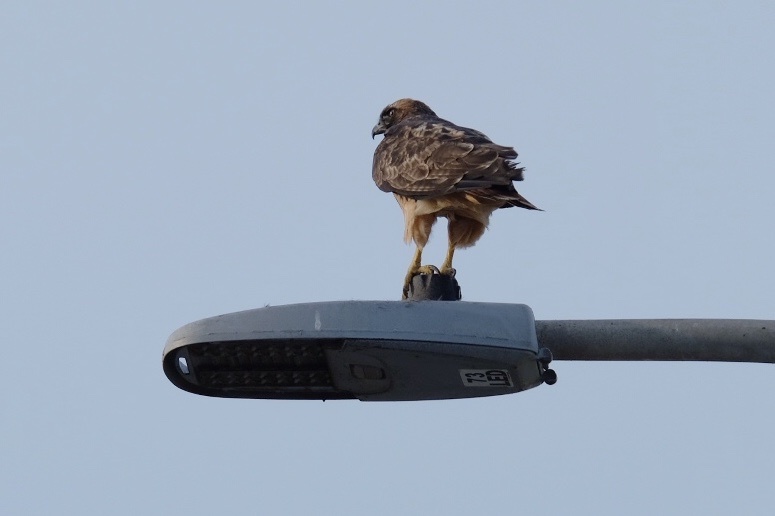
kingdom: Animalia
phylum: Chordata
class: Aves
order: Accipitriformes
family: Accipitridae
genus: Buteo
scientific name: Buteo jamaicensis
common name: Red-tailed hawk
